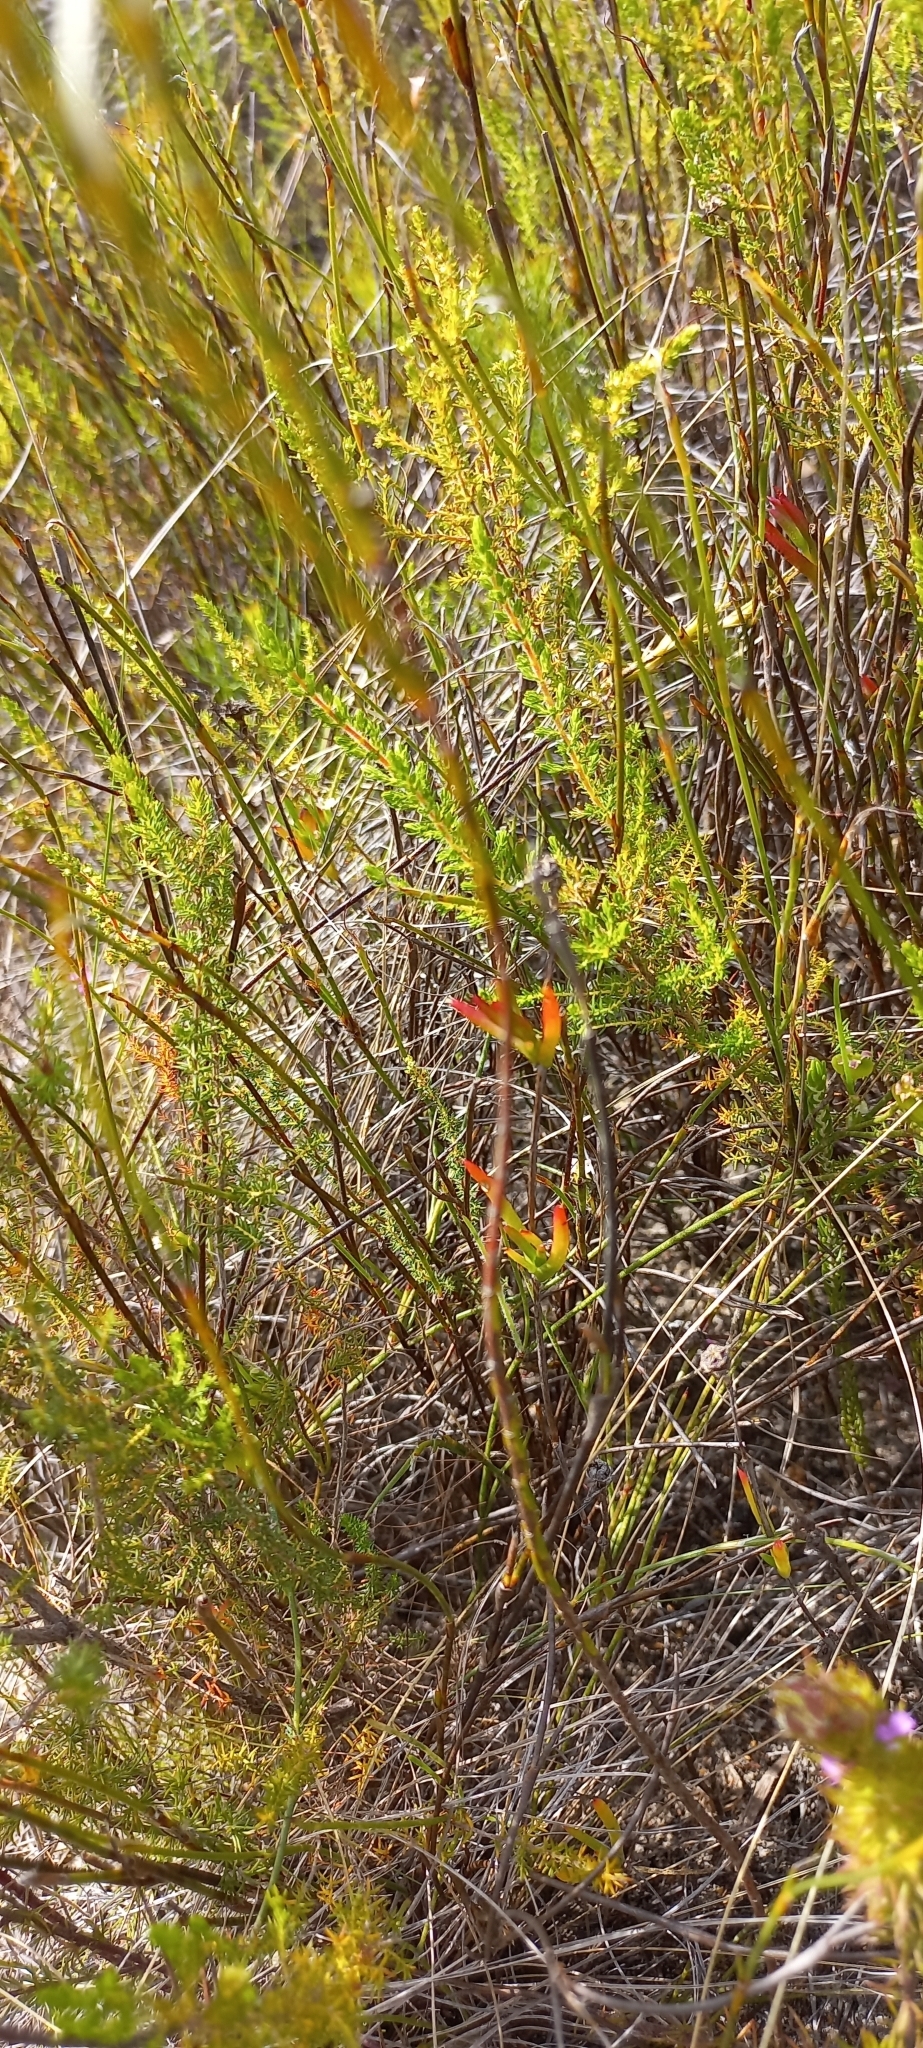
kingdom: Plantae
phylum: Tracheophyta
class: Magnoliopsida
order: Malvales
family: Thymelaeaceae
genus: Struthiola
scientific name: Struthiola myrsinites
